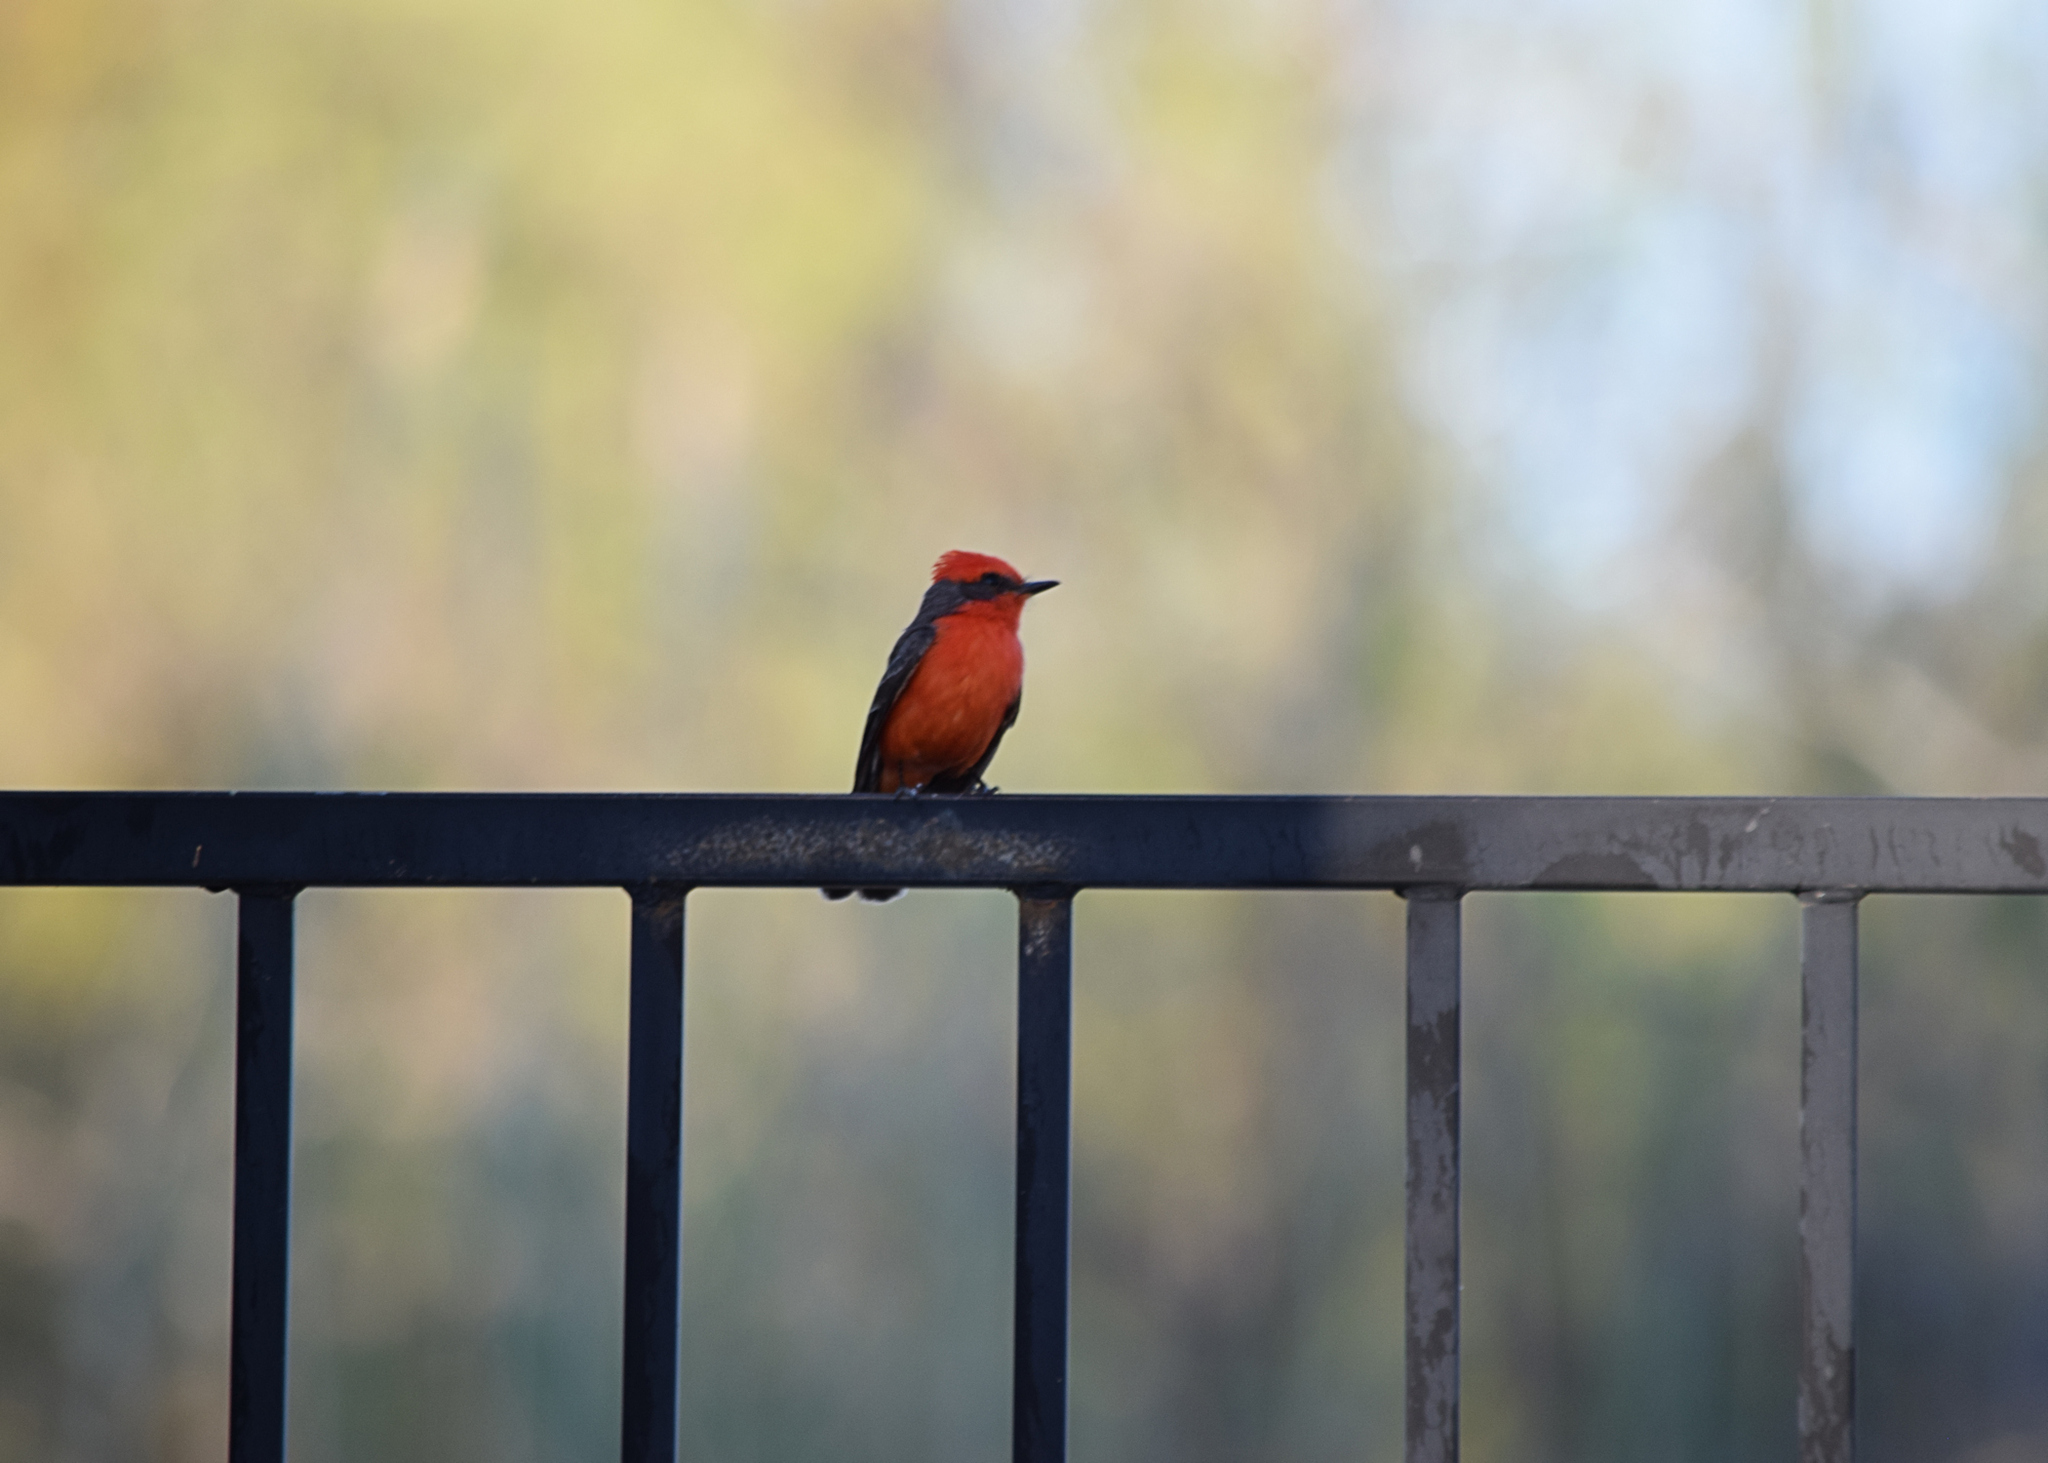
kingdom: Animalia
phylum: Chordata
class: Aves
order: Passeriformes
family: Tyrannidae
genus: Pyrocephalus
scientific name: Pyrocephalus rubinus
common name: Vermilion flycatcher
